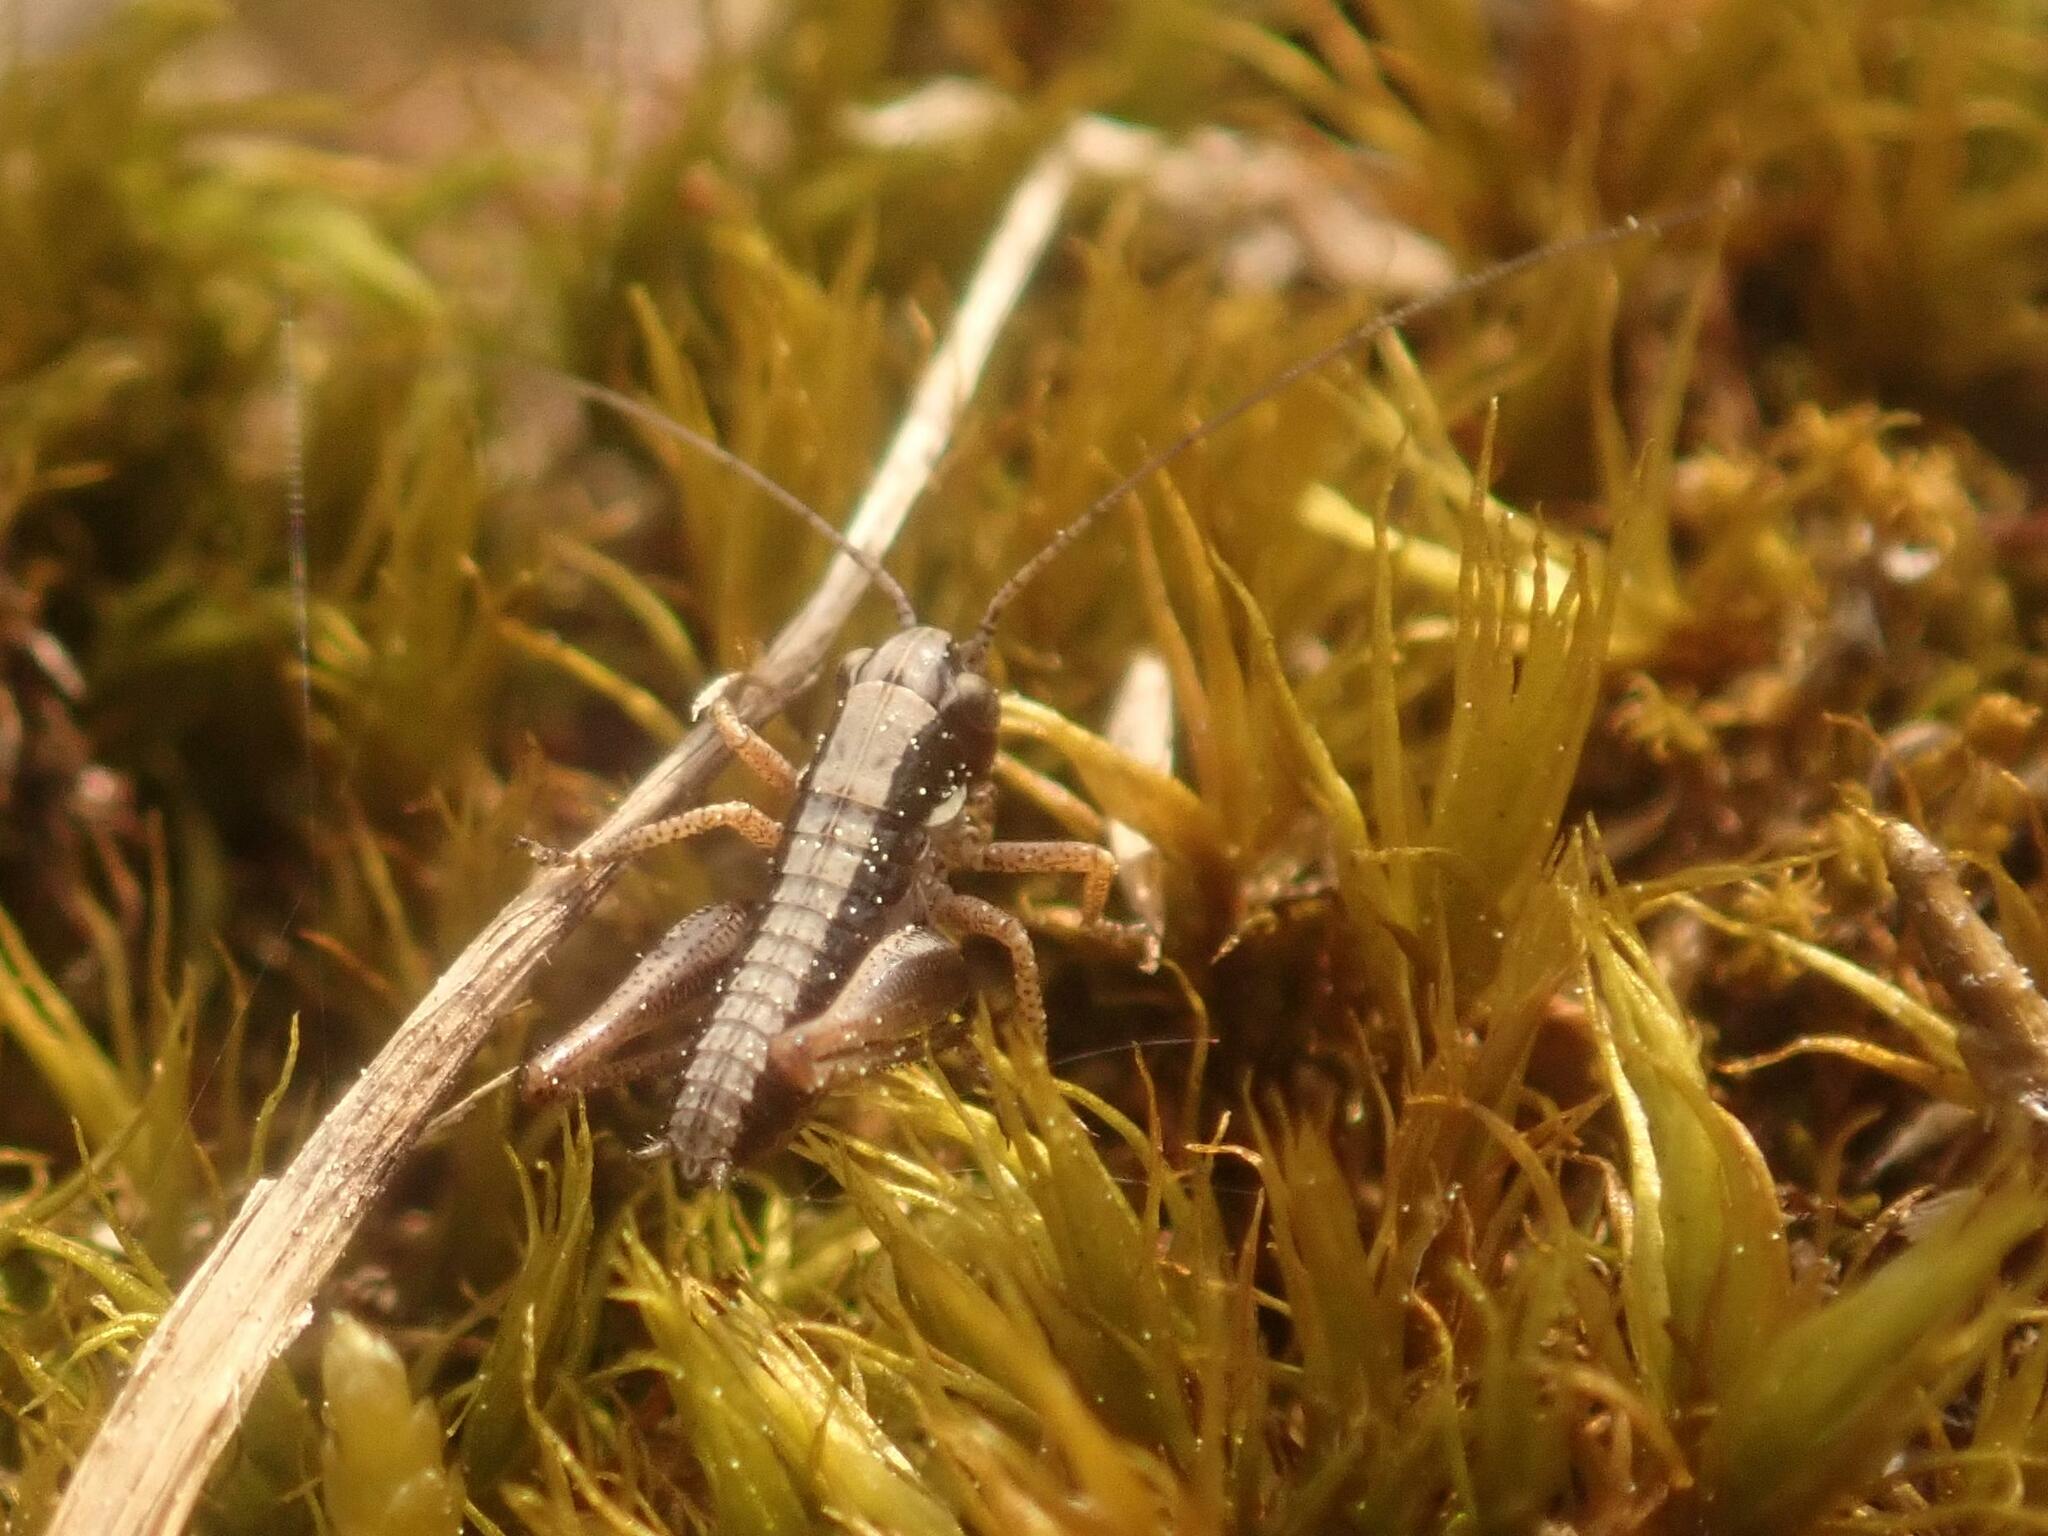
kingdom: Animalia
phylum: Arthropoda
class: Insecta
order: Orthoptera
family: Tettigoniidae
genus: Platycleis
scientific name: Platycleis albopunctata
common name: Grey bush-cricket
